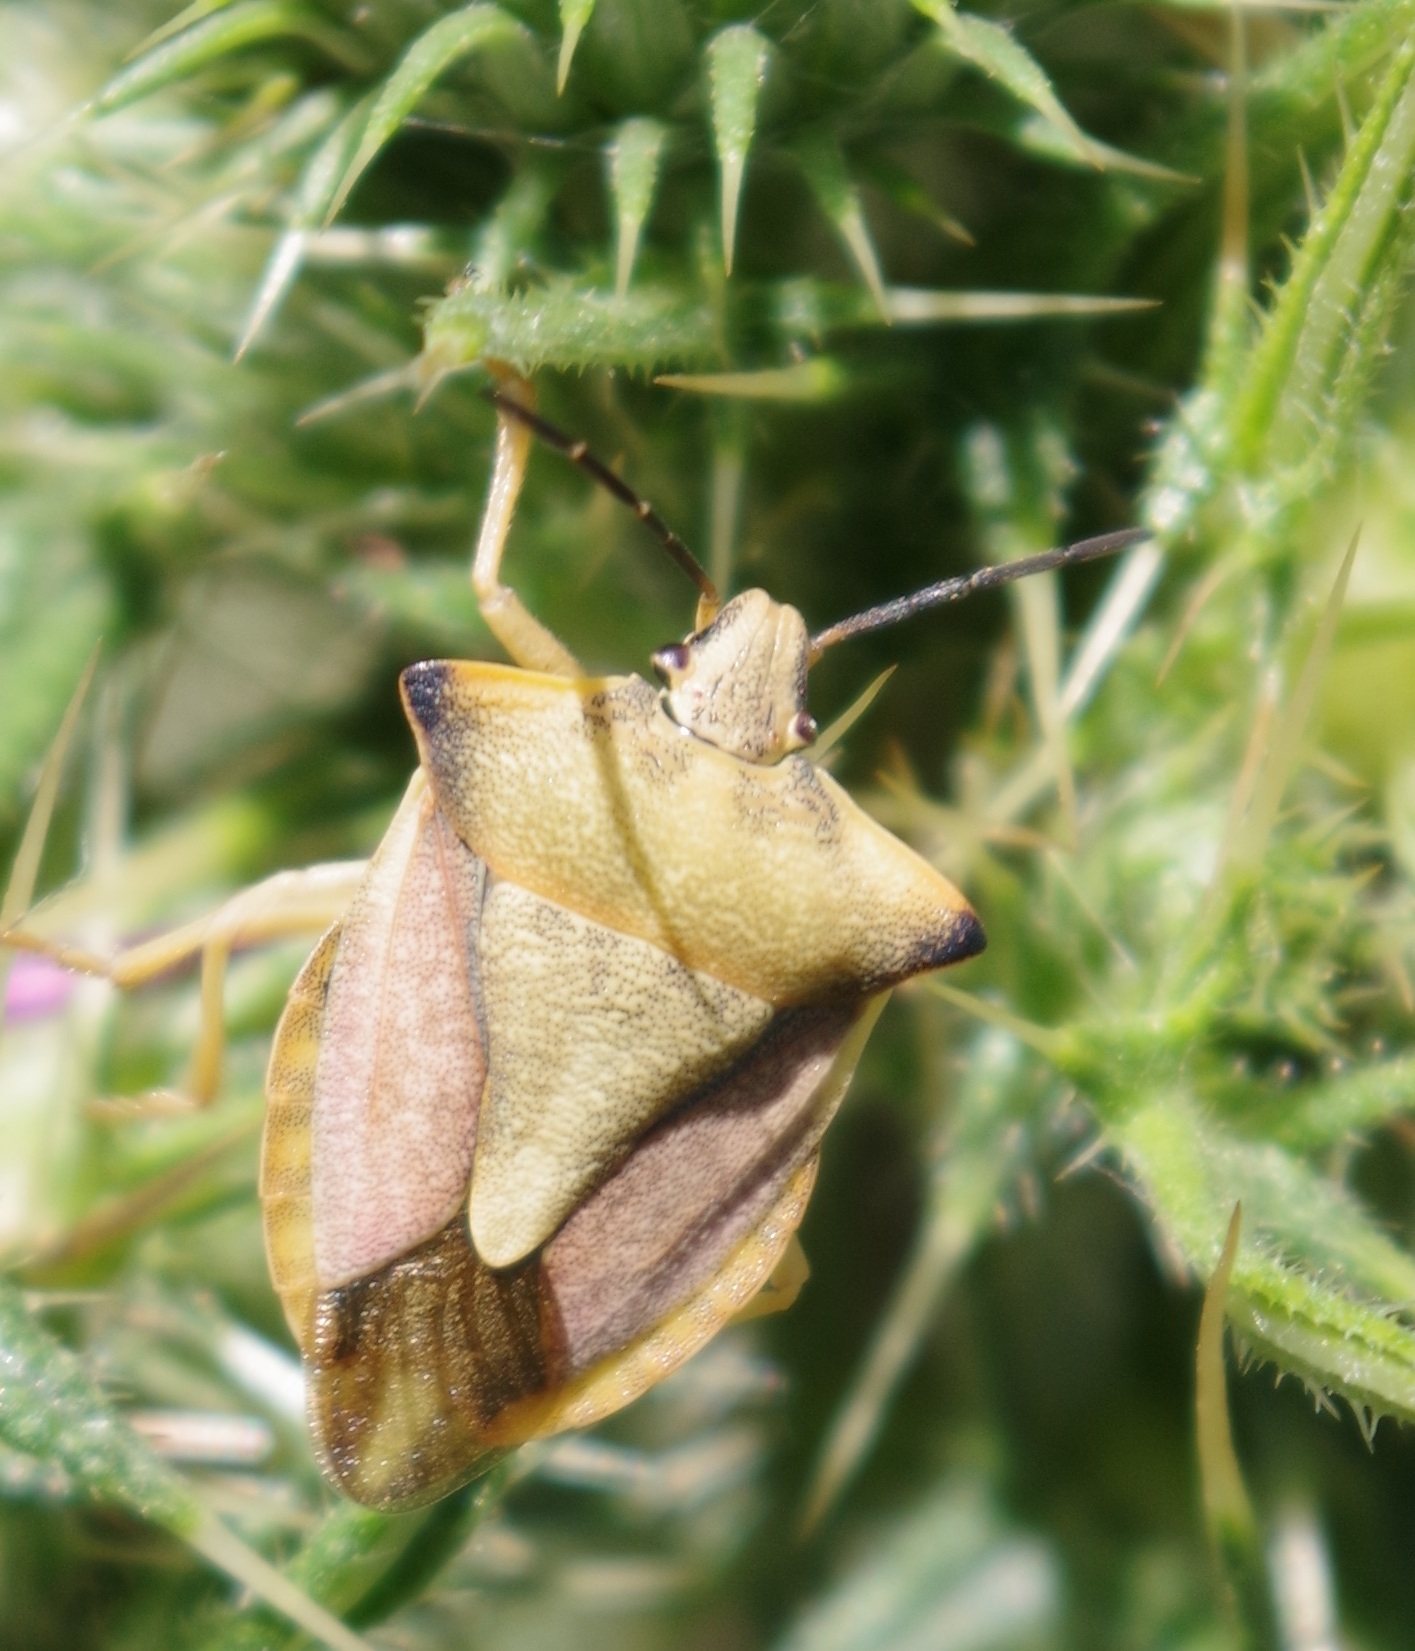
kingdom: Animalia
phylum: Arthropoda
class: Insecta
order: Hemiptera
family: Pentatomidae
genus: Carpocoris
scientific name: Carpocoris fuscispinus
